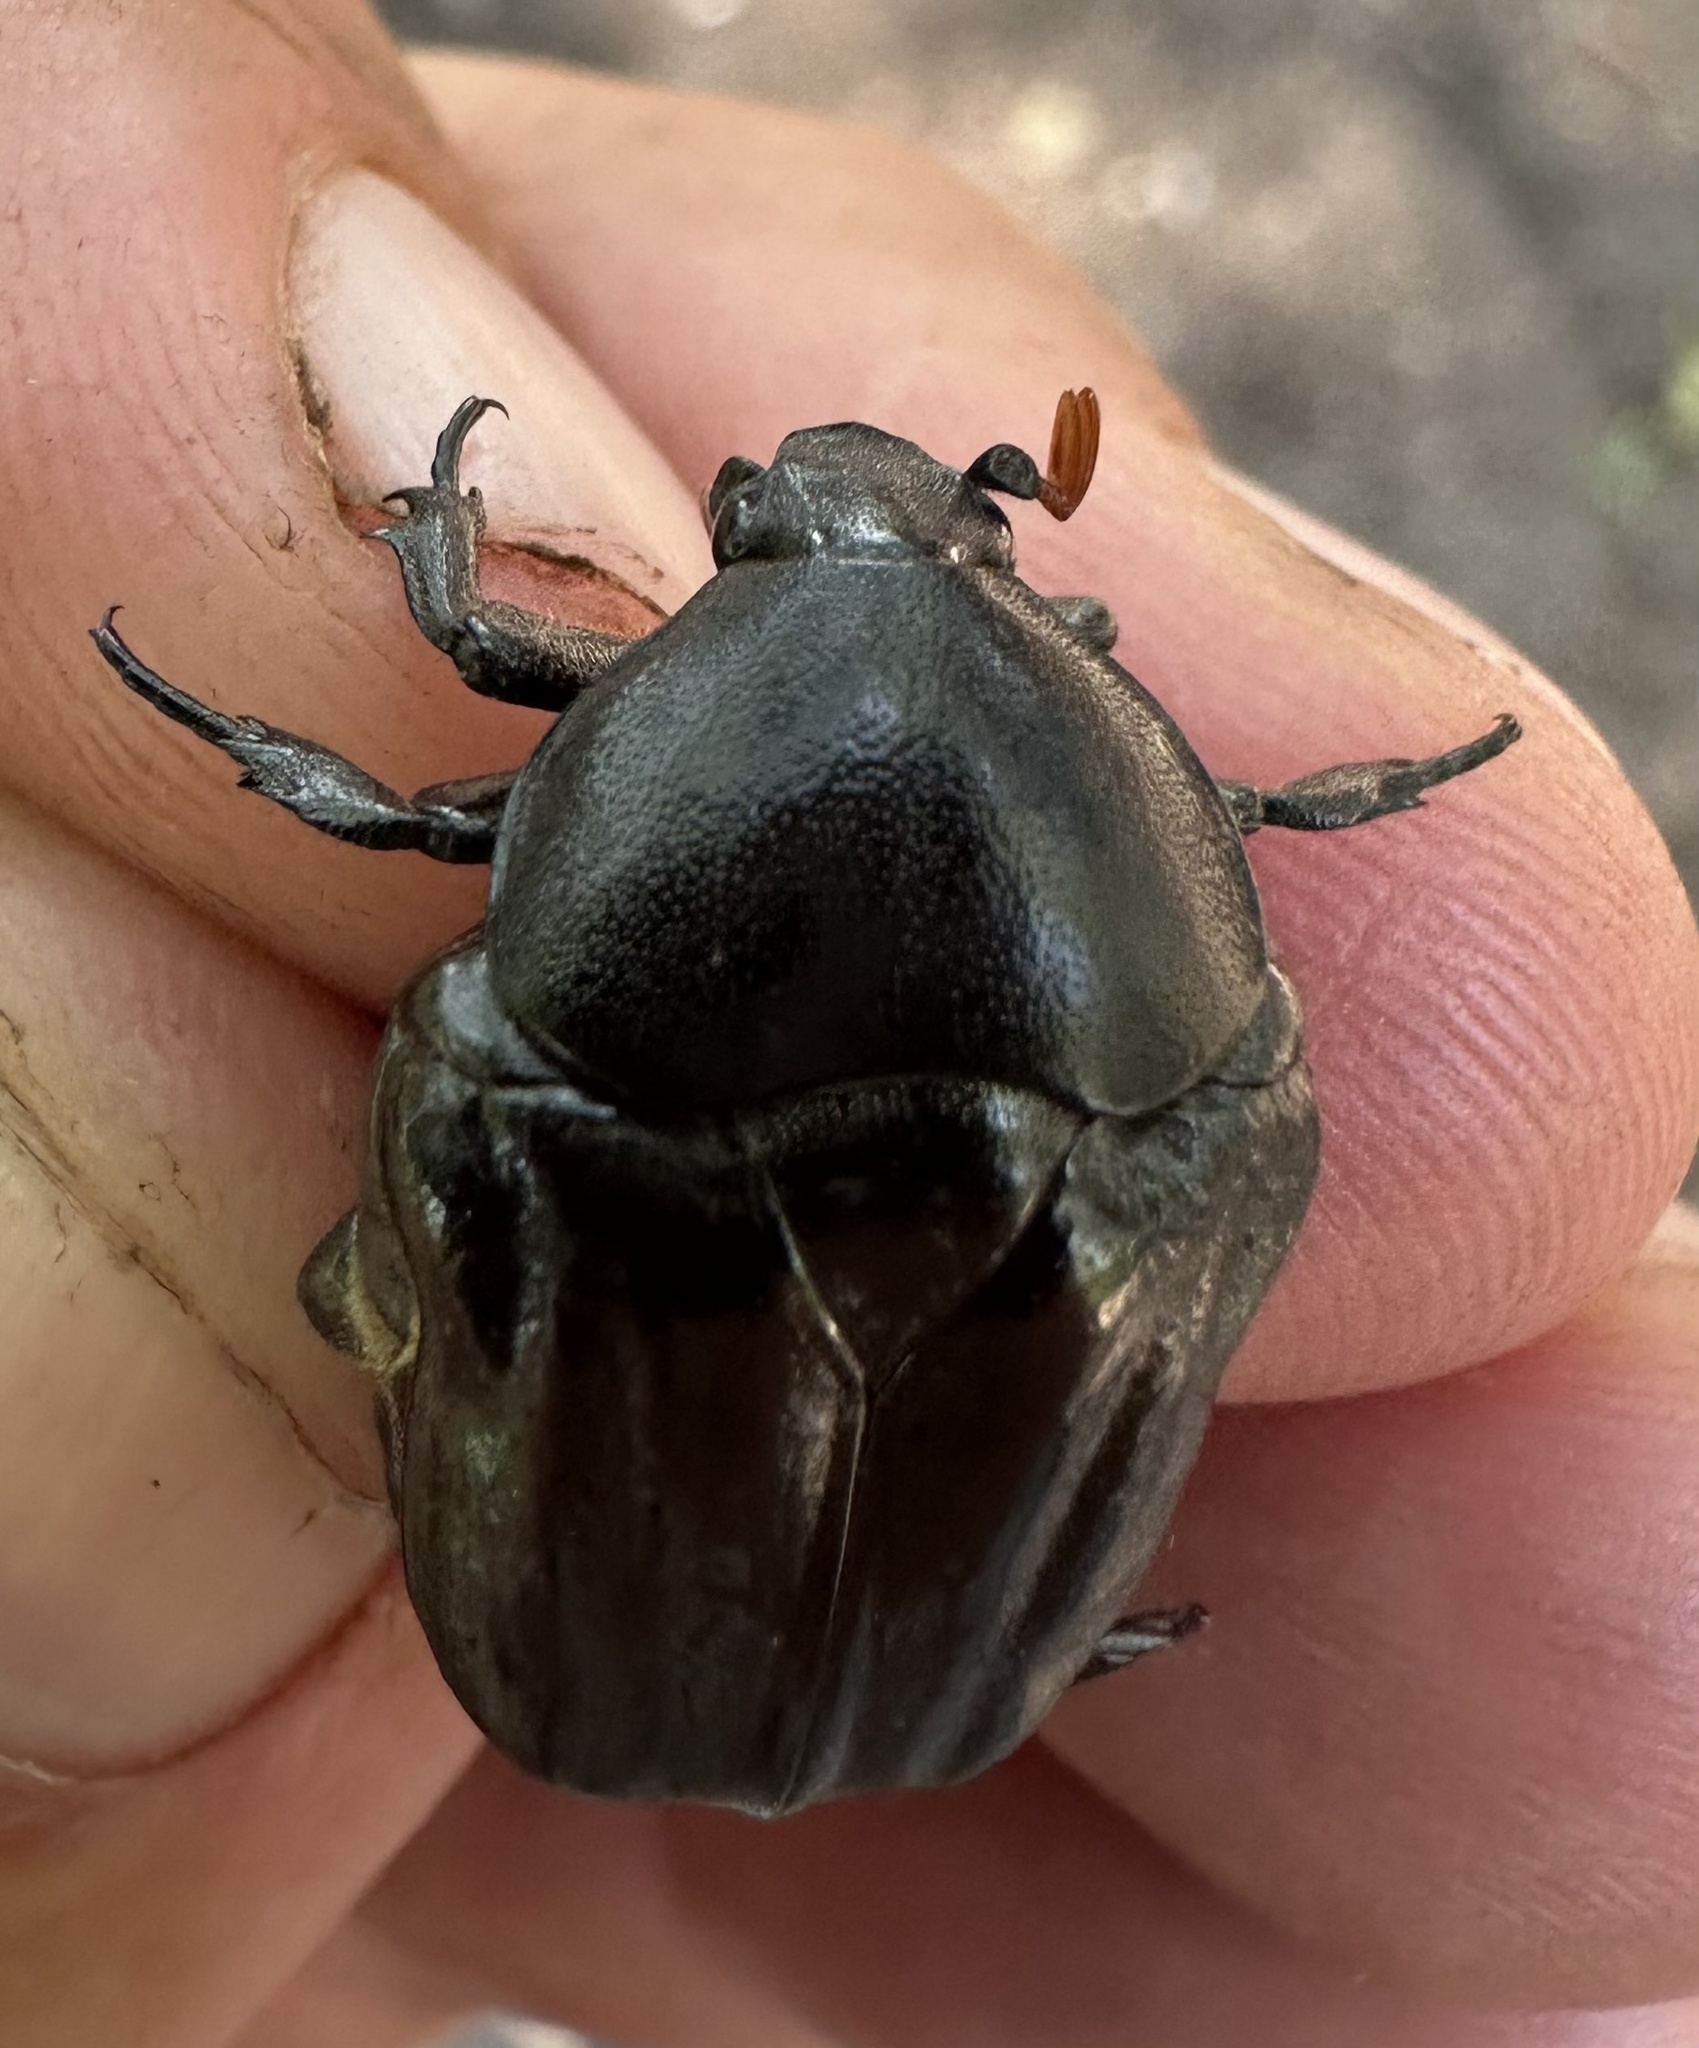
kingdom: Animalia
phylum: Arthropoda
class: Insecta
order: Coleoptera
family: Scarabaeidae
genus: Oplostomus
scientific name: Oplostomus fuligineus
